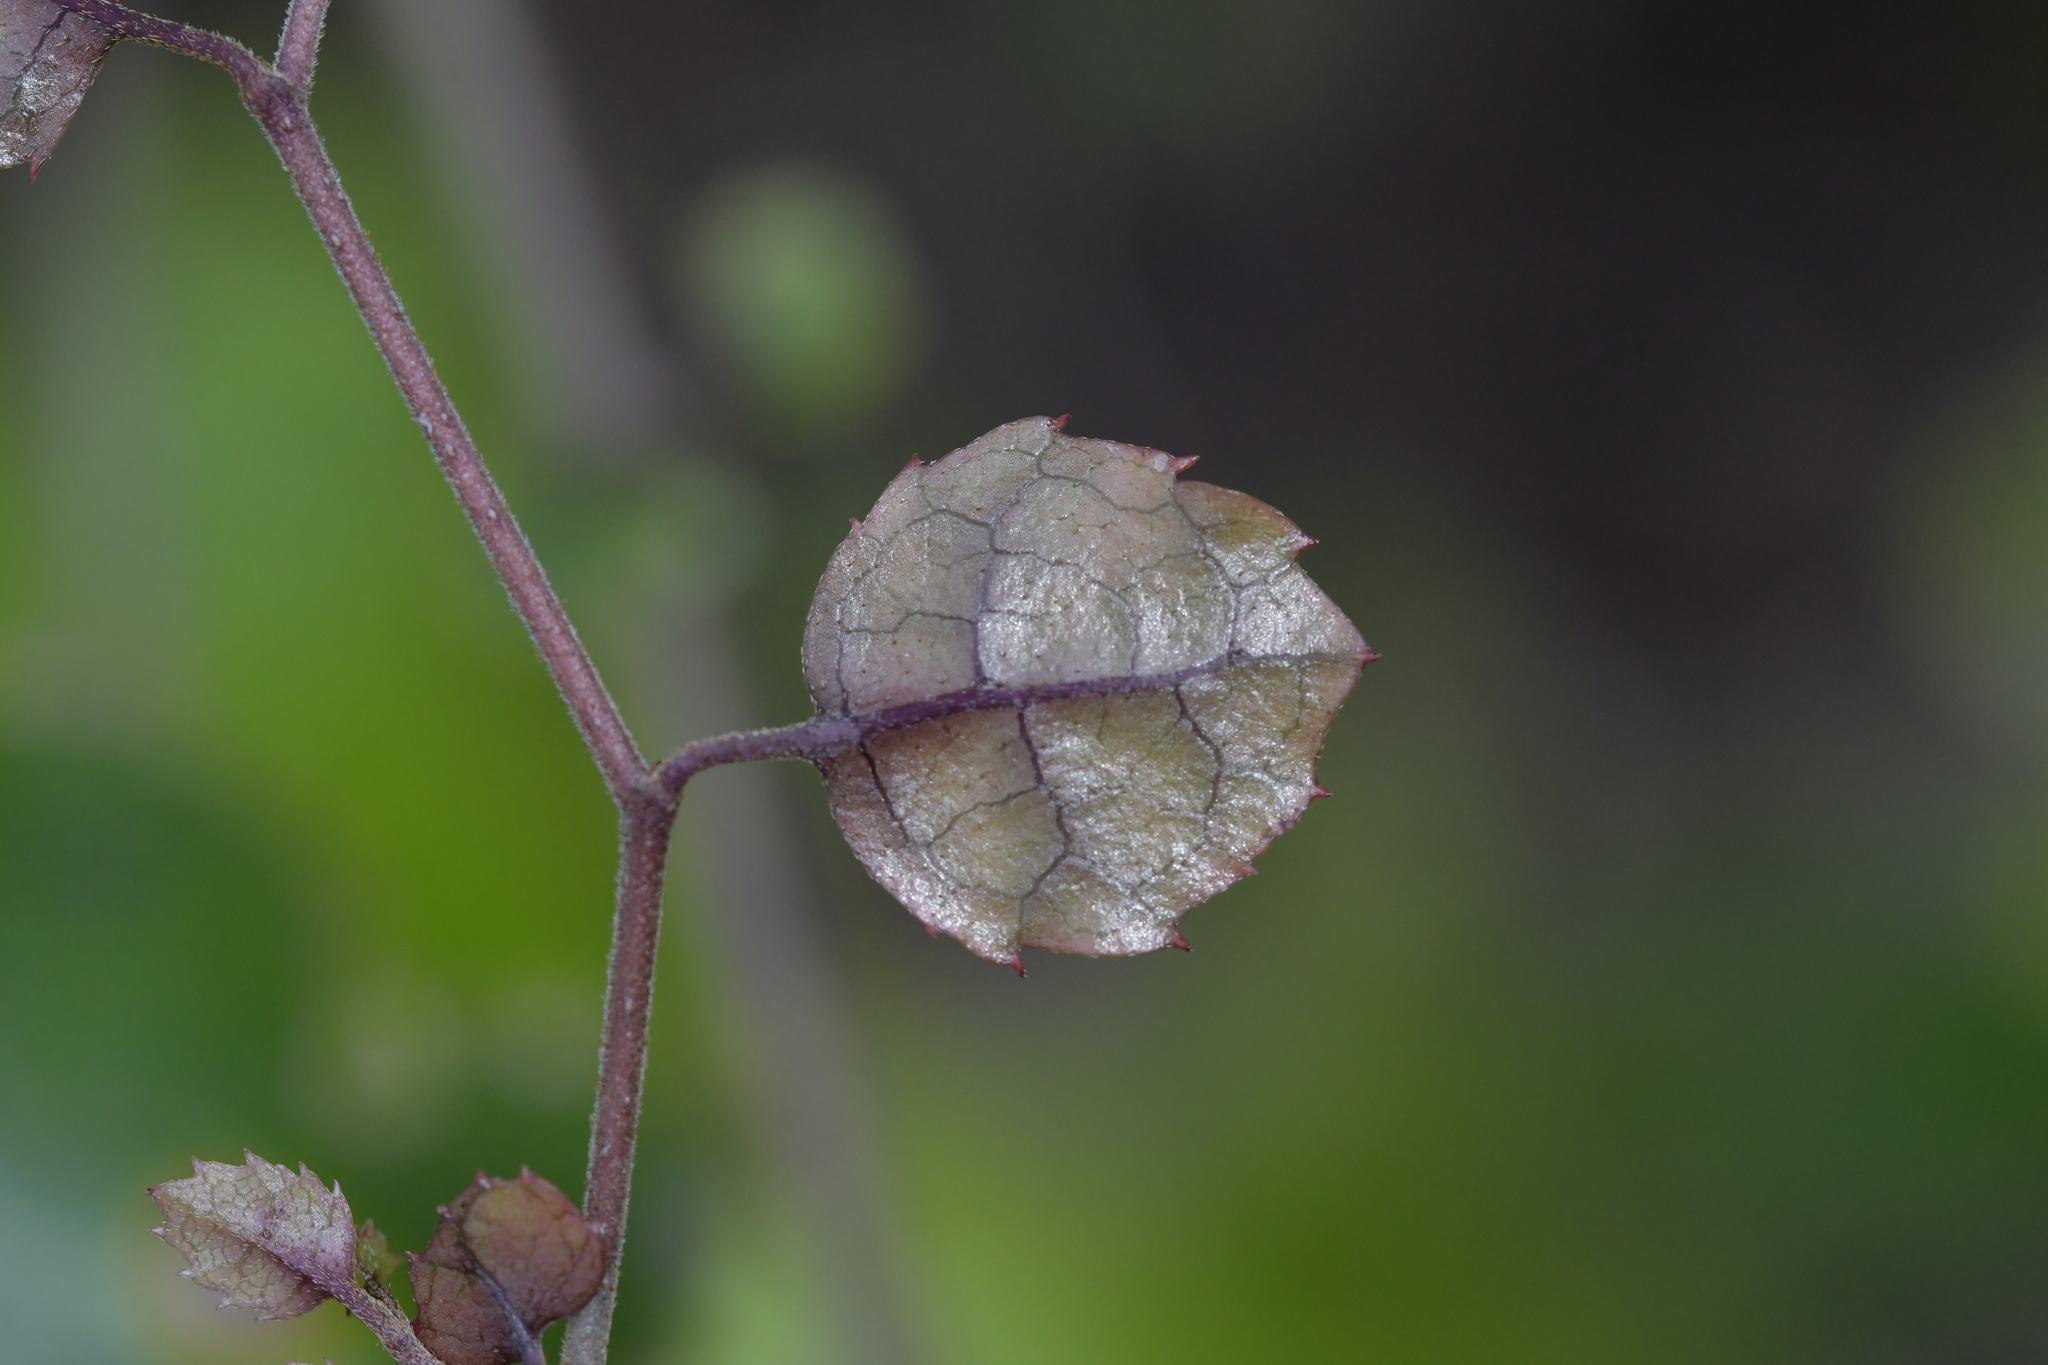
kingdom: Plantae
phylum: Tracheophyta
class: Magnoliopsida
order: Asterales
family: Rousseaceae
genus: Carpodetus
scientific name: Carpodetus serratus
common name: White mapau
